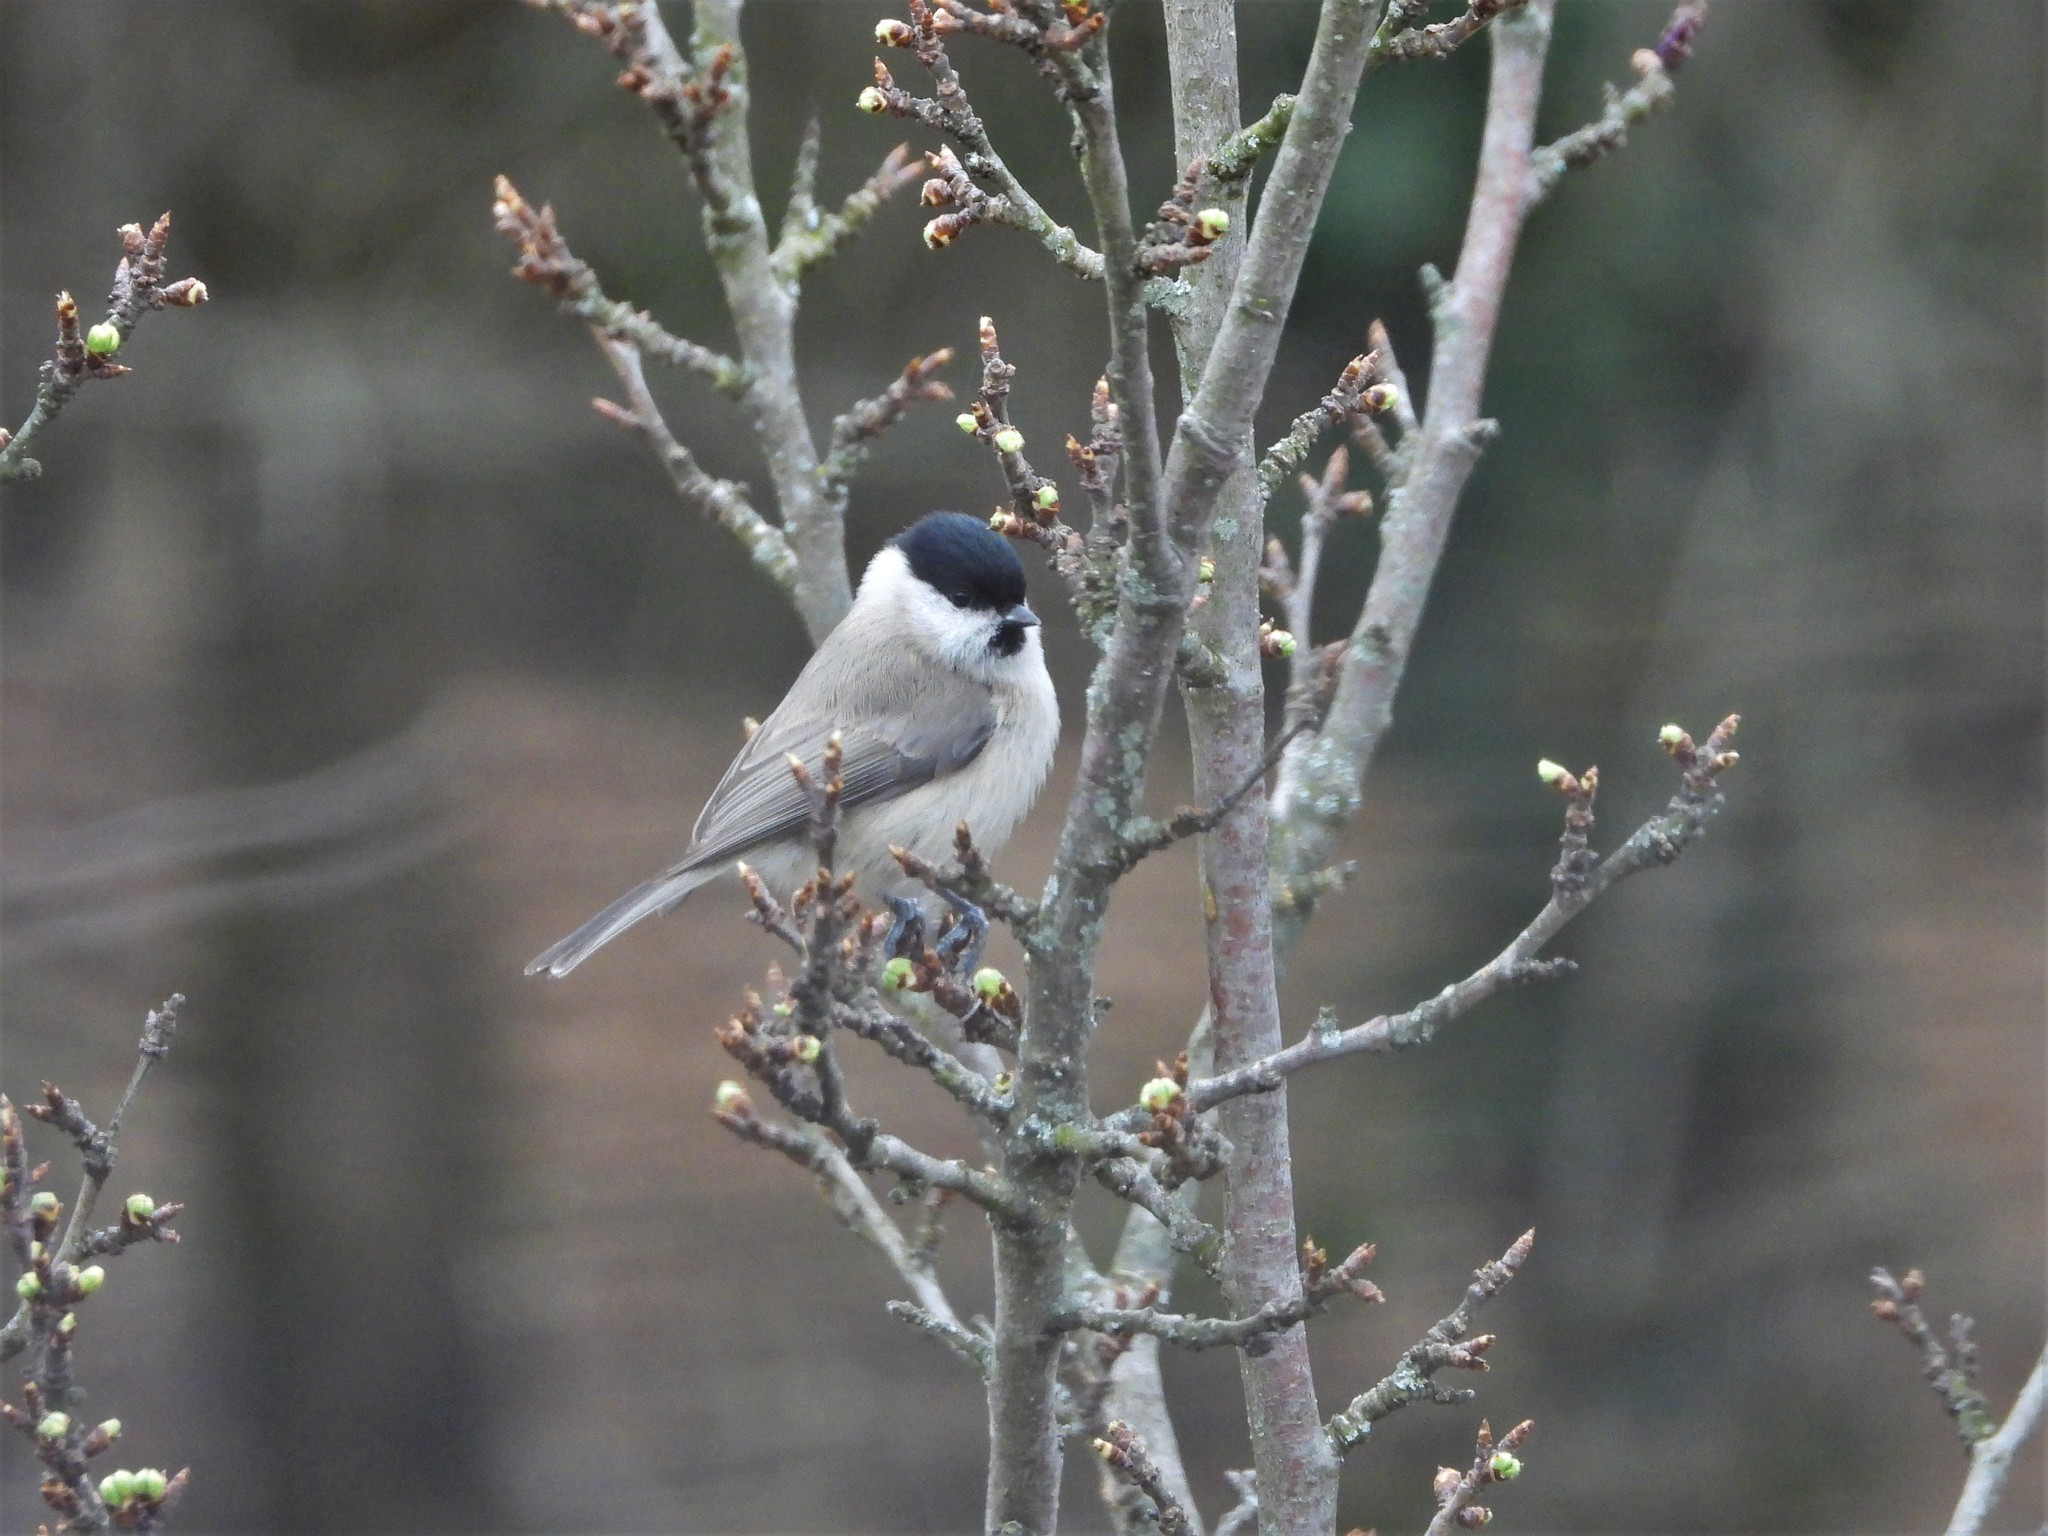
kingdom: Animalia
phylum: Chordata
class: Aves
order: Passeriformes
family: Paridae
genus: Poecile
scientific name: Poecile palustris
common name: Marsh tit
